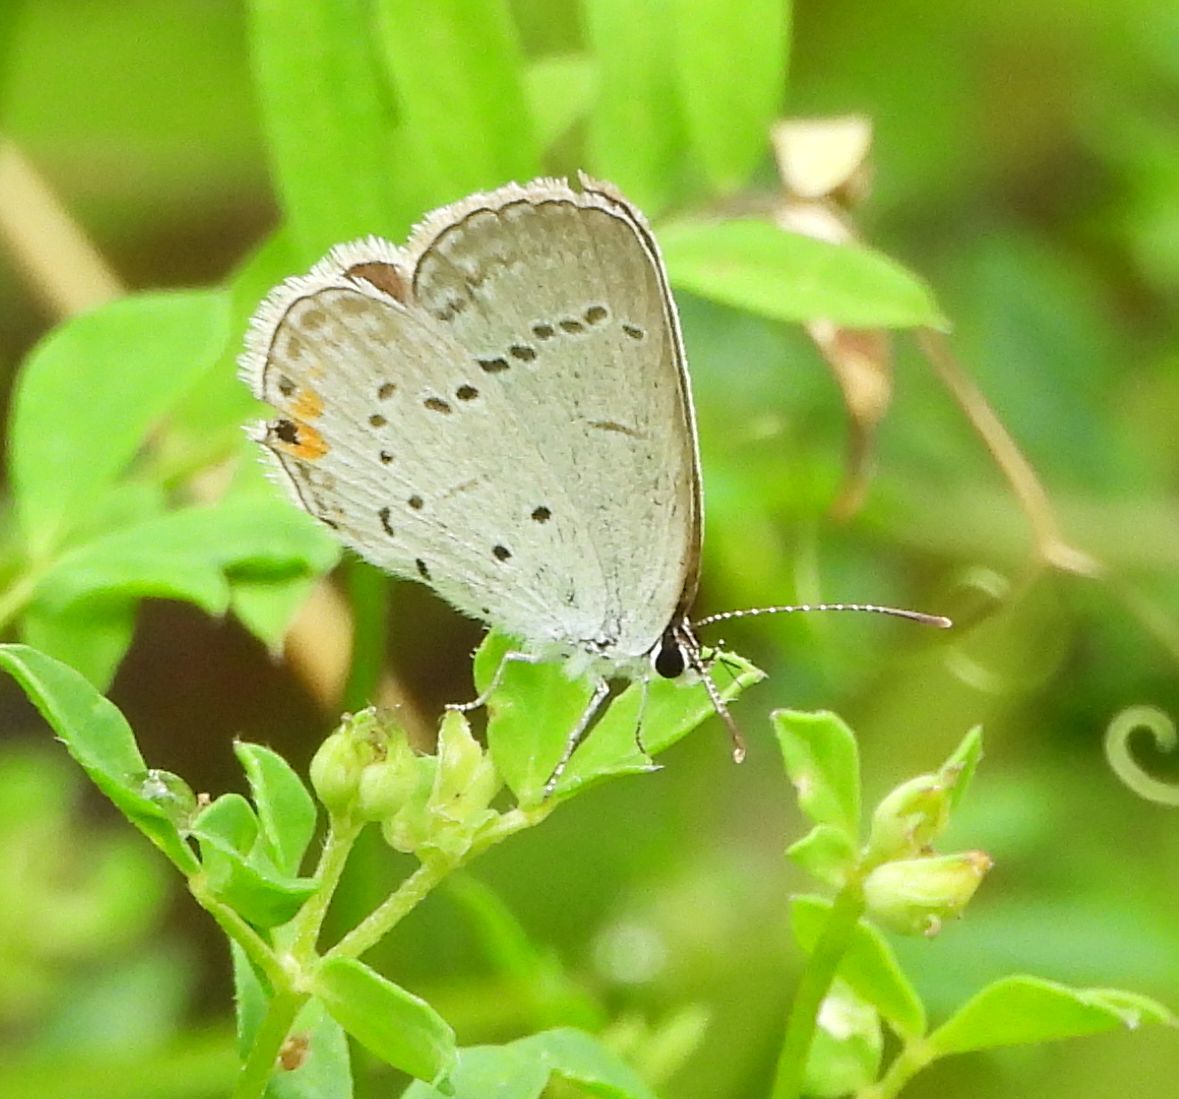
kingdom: Animalia
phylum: Arthropoda
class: Insecta
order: Lepidoptera
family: Lycaenidae
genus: Elkalyce
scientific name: Elkalyce comyntas
